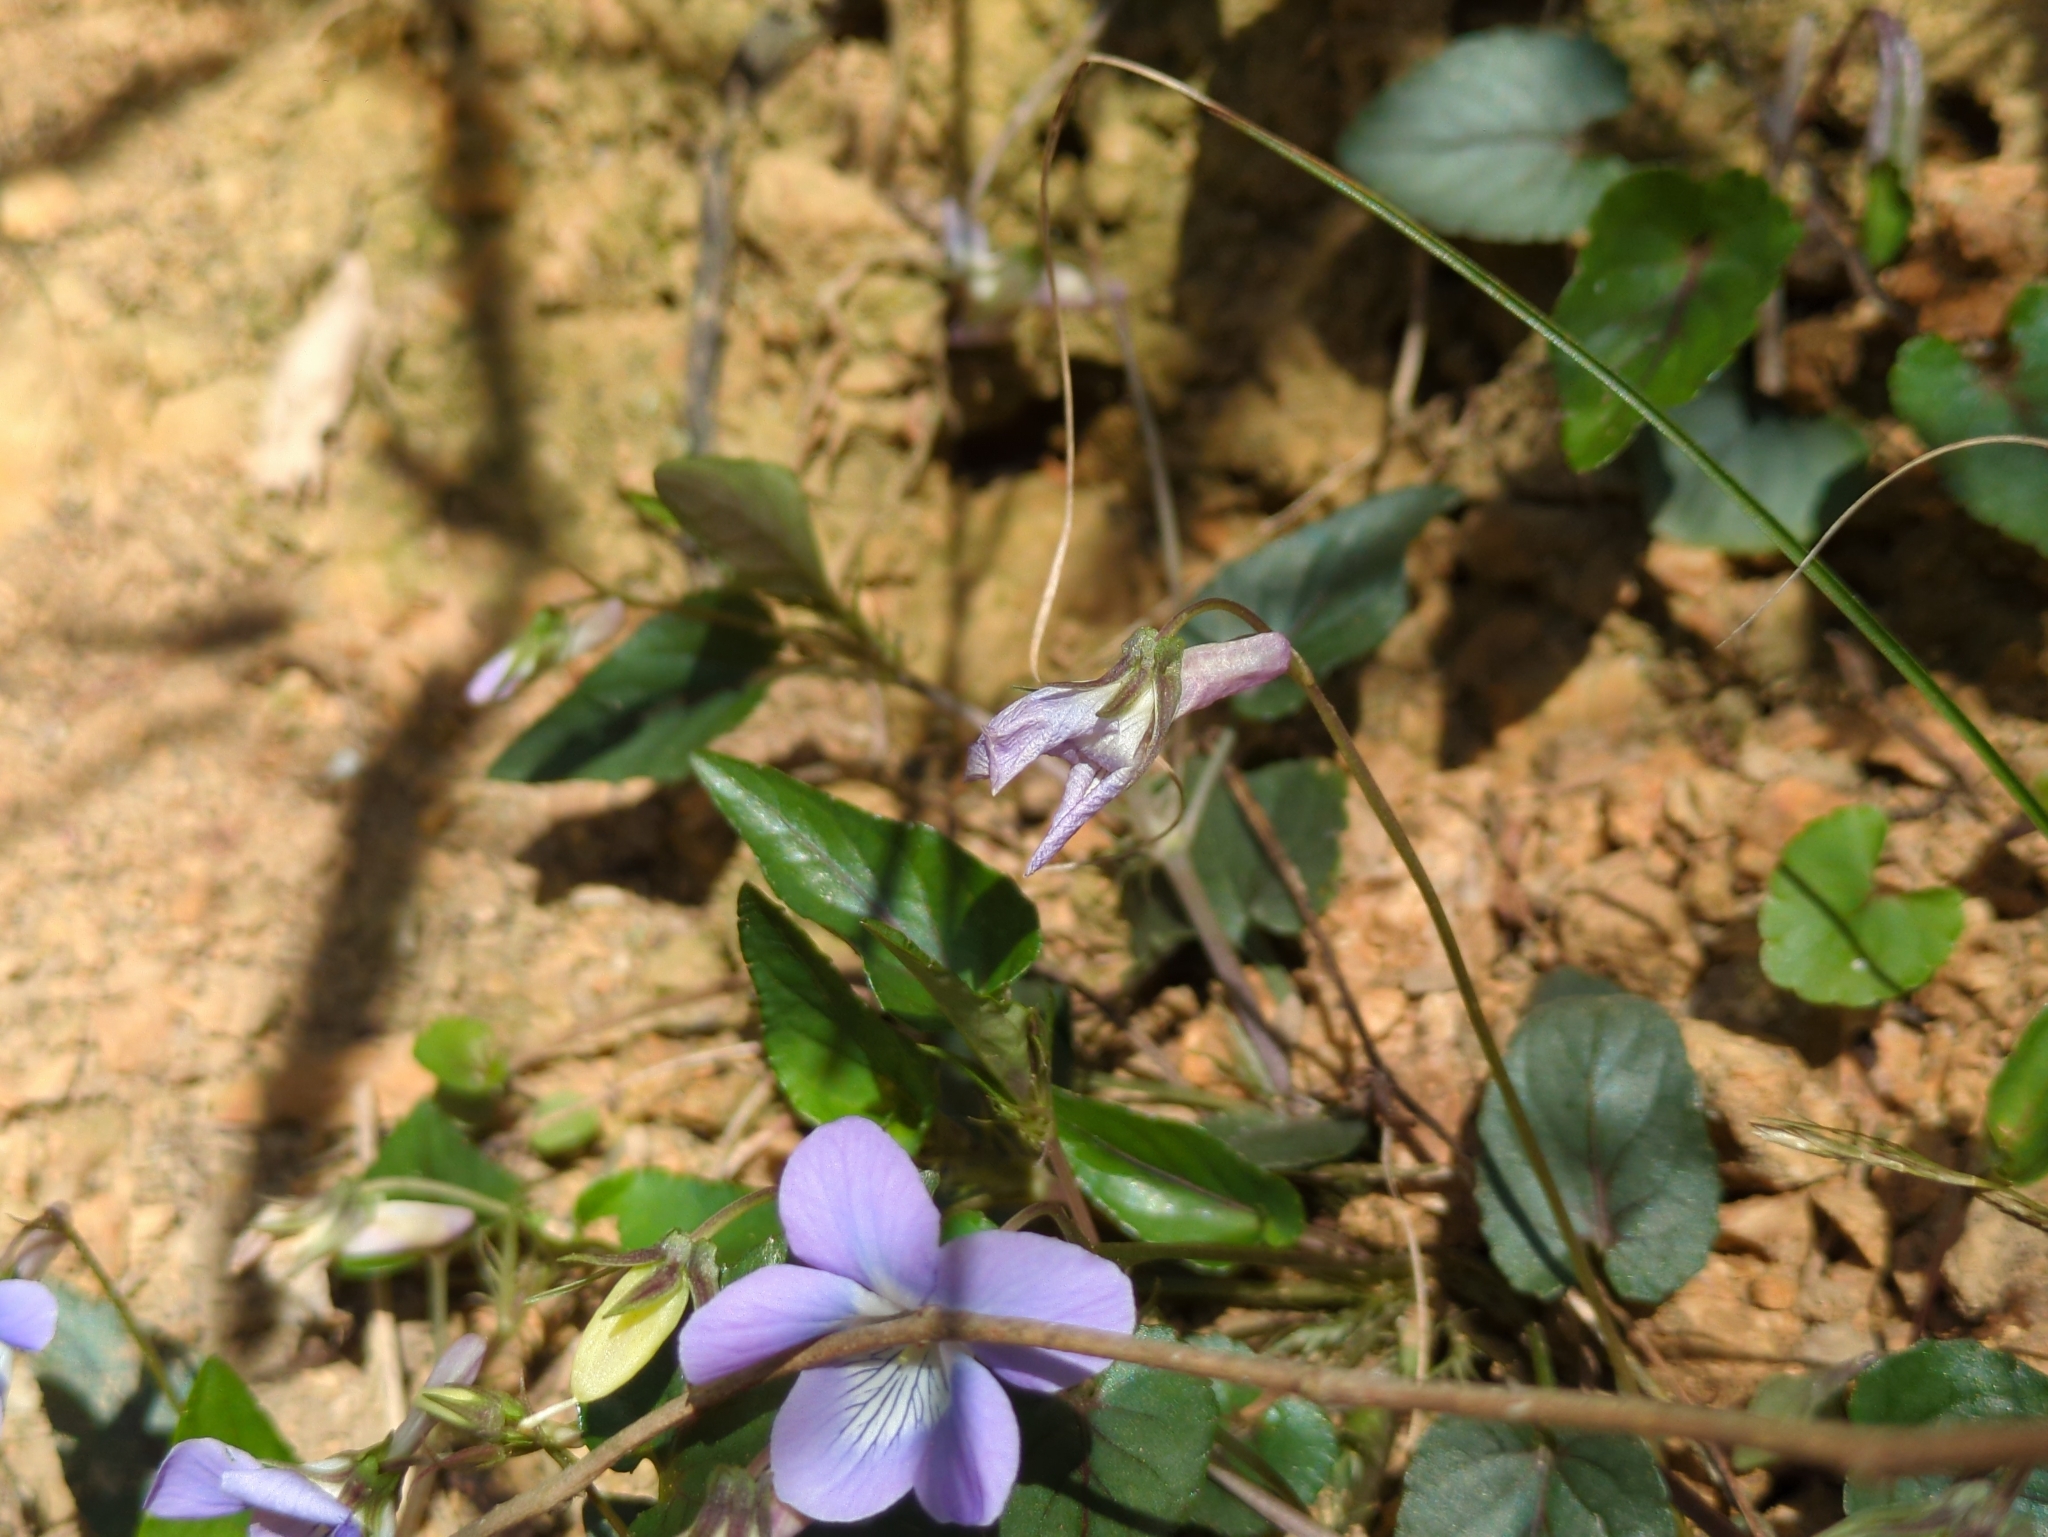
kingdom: Plantae
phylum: Tracheophyta
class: Magnoliopsida
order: Malpighiales
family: Violaceae
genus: Viola
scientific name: Viola ovatooblonga
